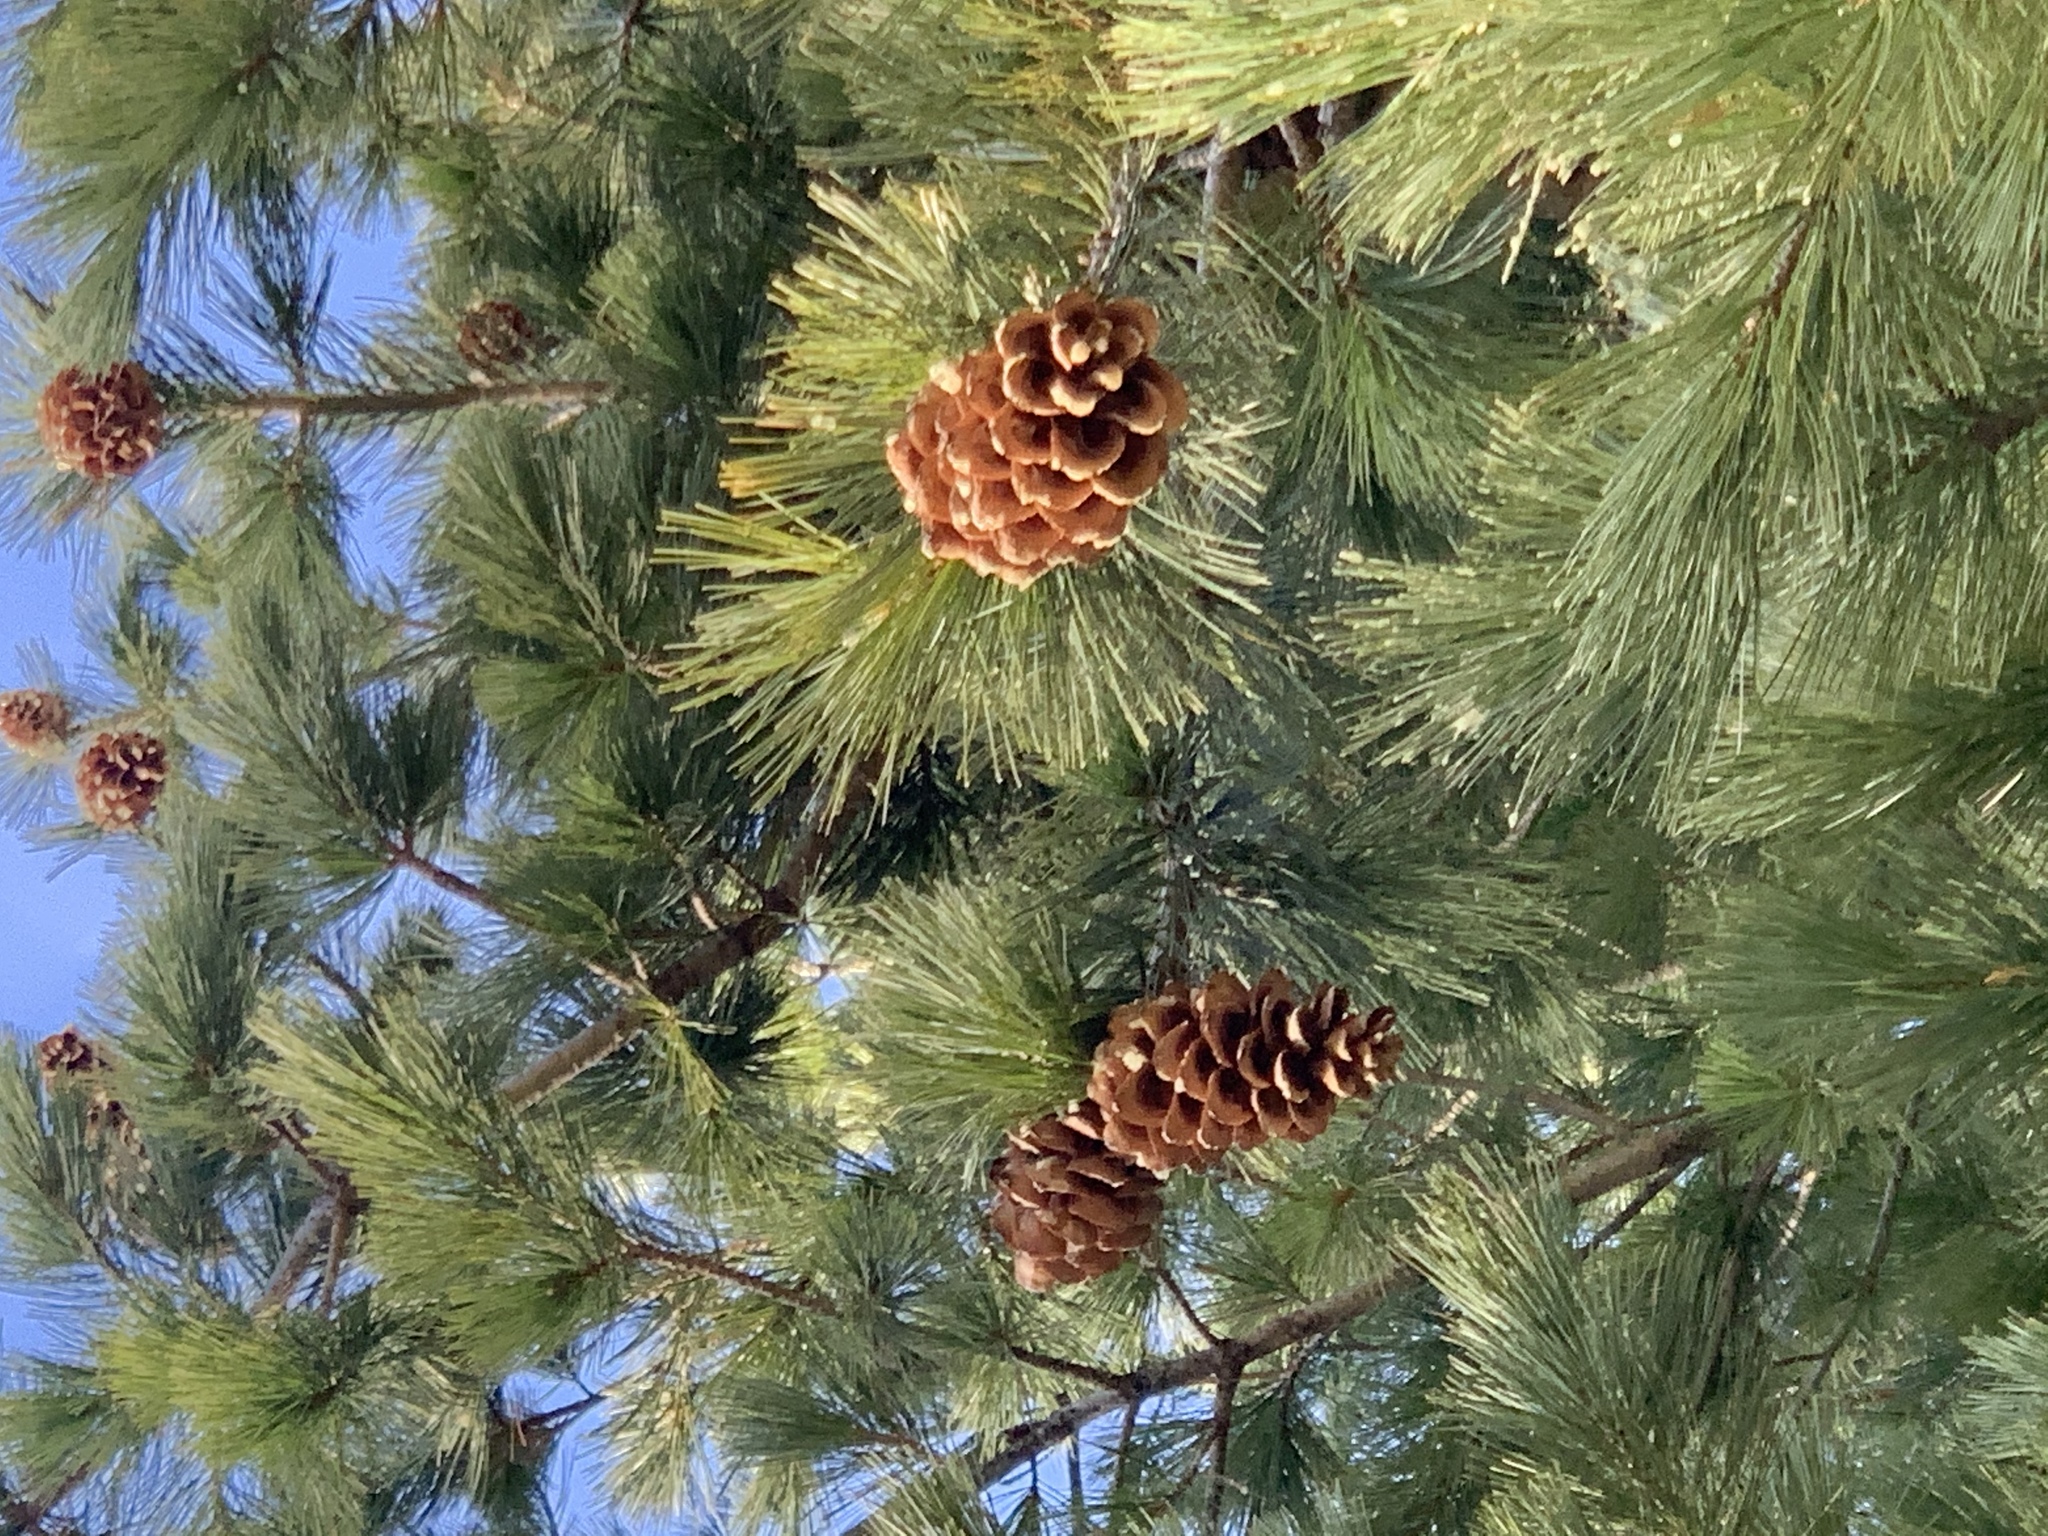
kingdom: Plantae
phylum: Tracheophyta
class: Pinopsida
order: Pinales
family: Pinaceae
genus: Pinus
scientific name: Pinus strobiformis
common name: Southwestern white pine
